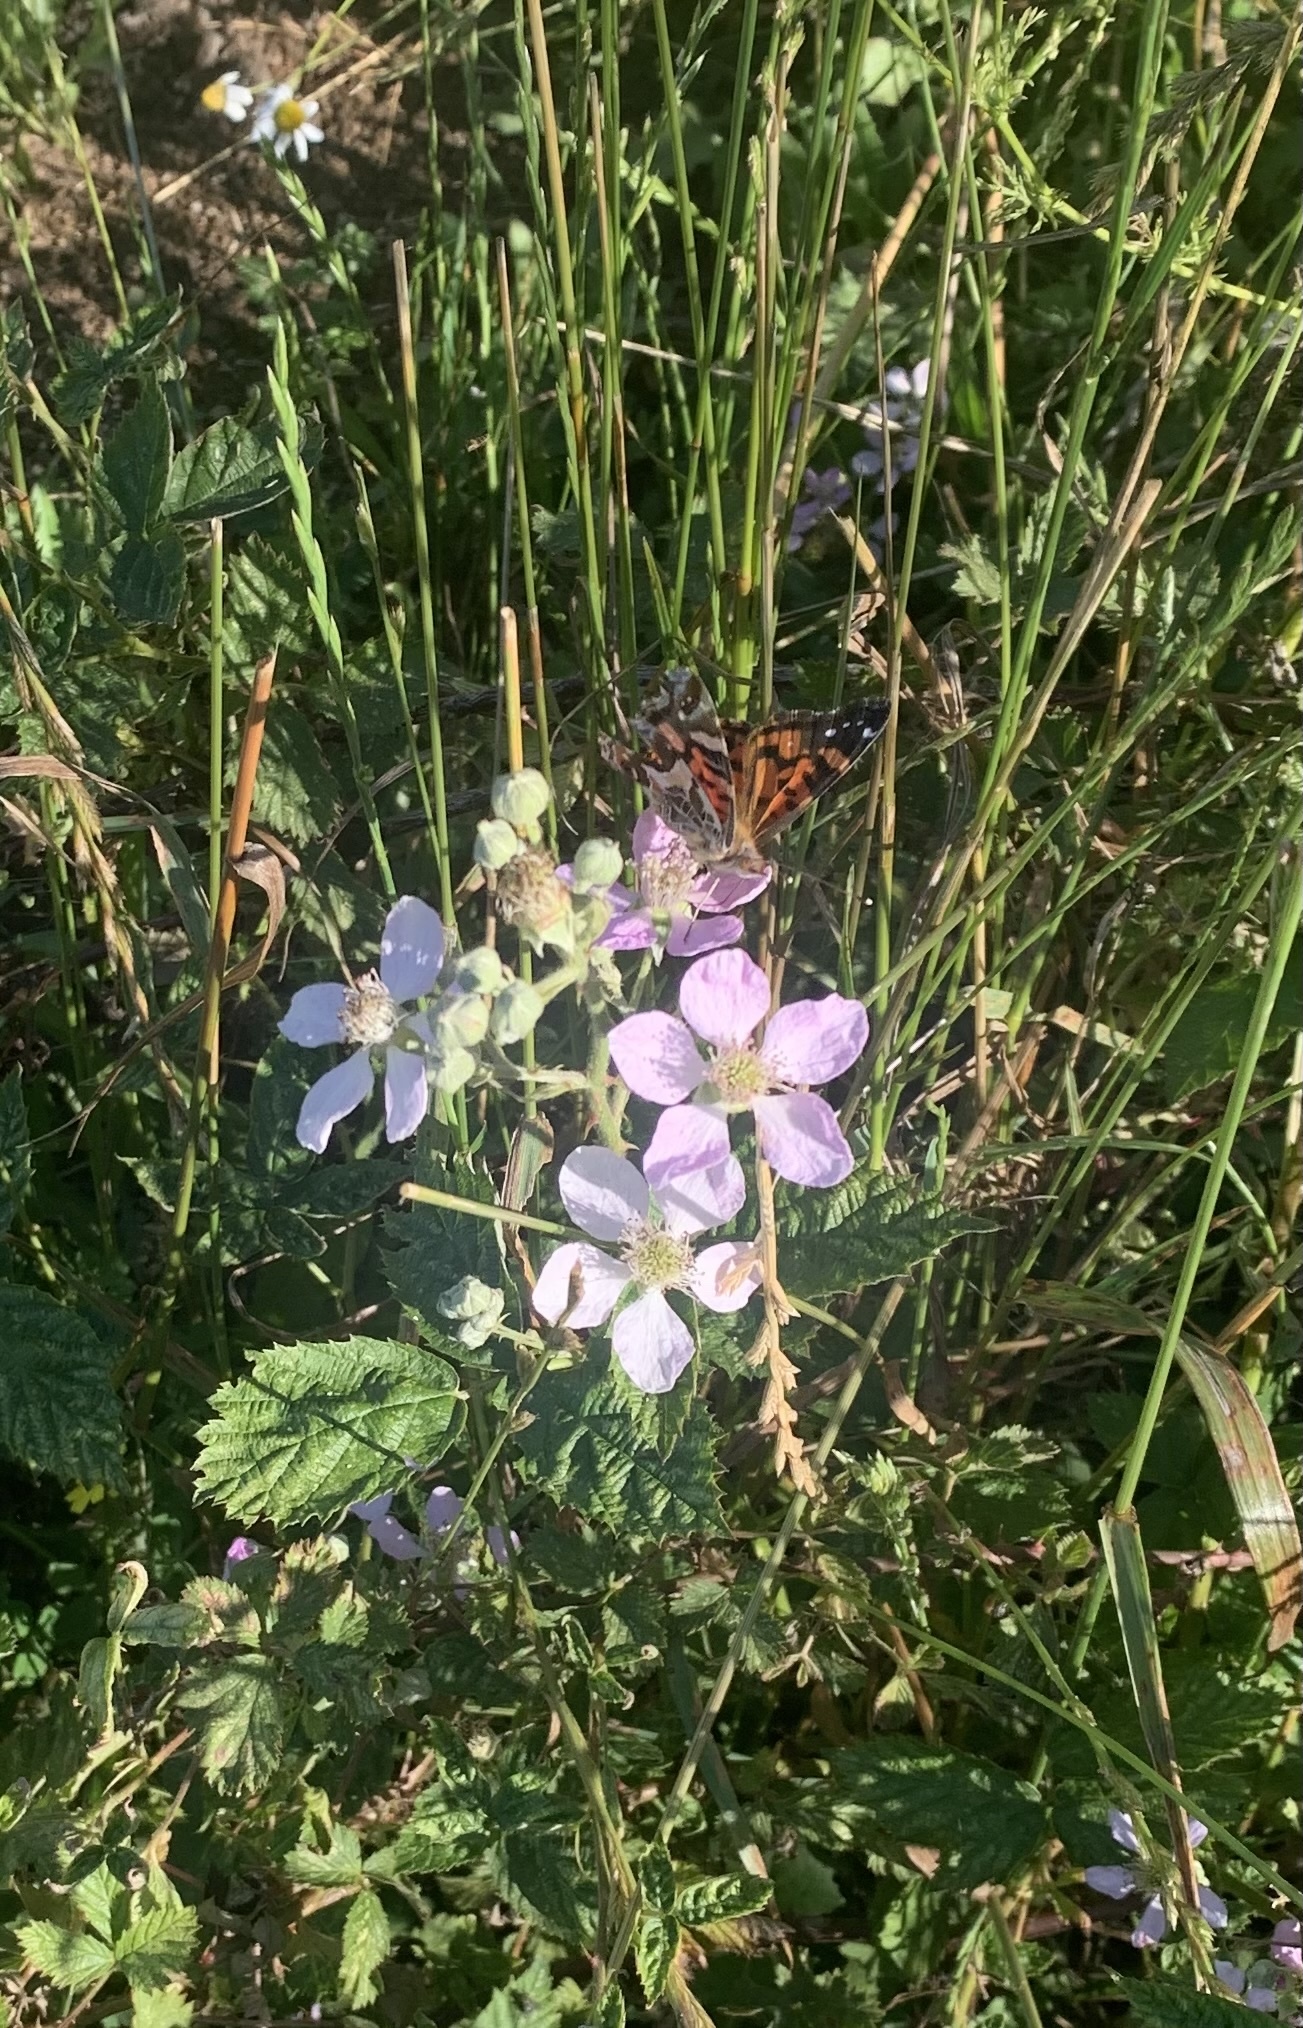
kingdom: Animalia
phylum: Arthropoda
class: Insecta
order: Lepidoptera
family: Nymphalidae
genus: Vanessa
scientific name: Vanessa terpsichore
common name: Chilean lady
